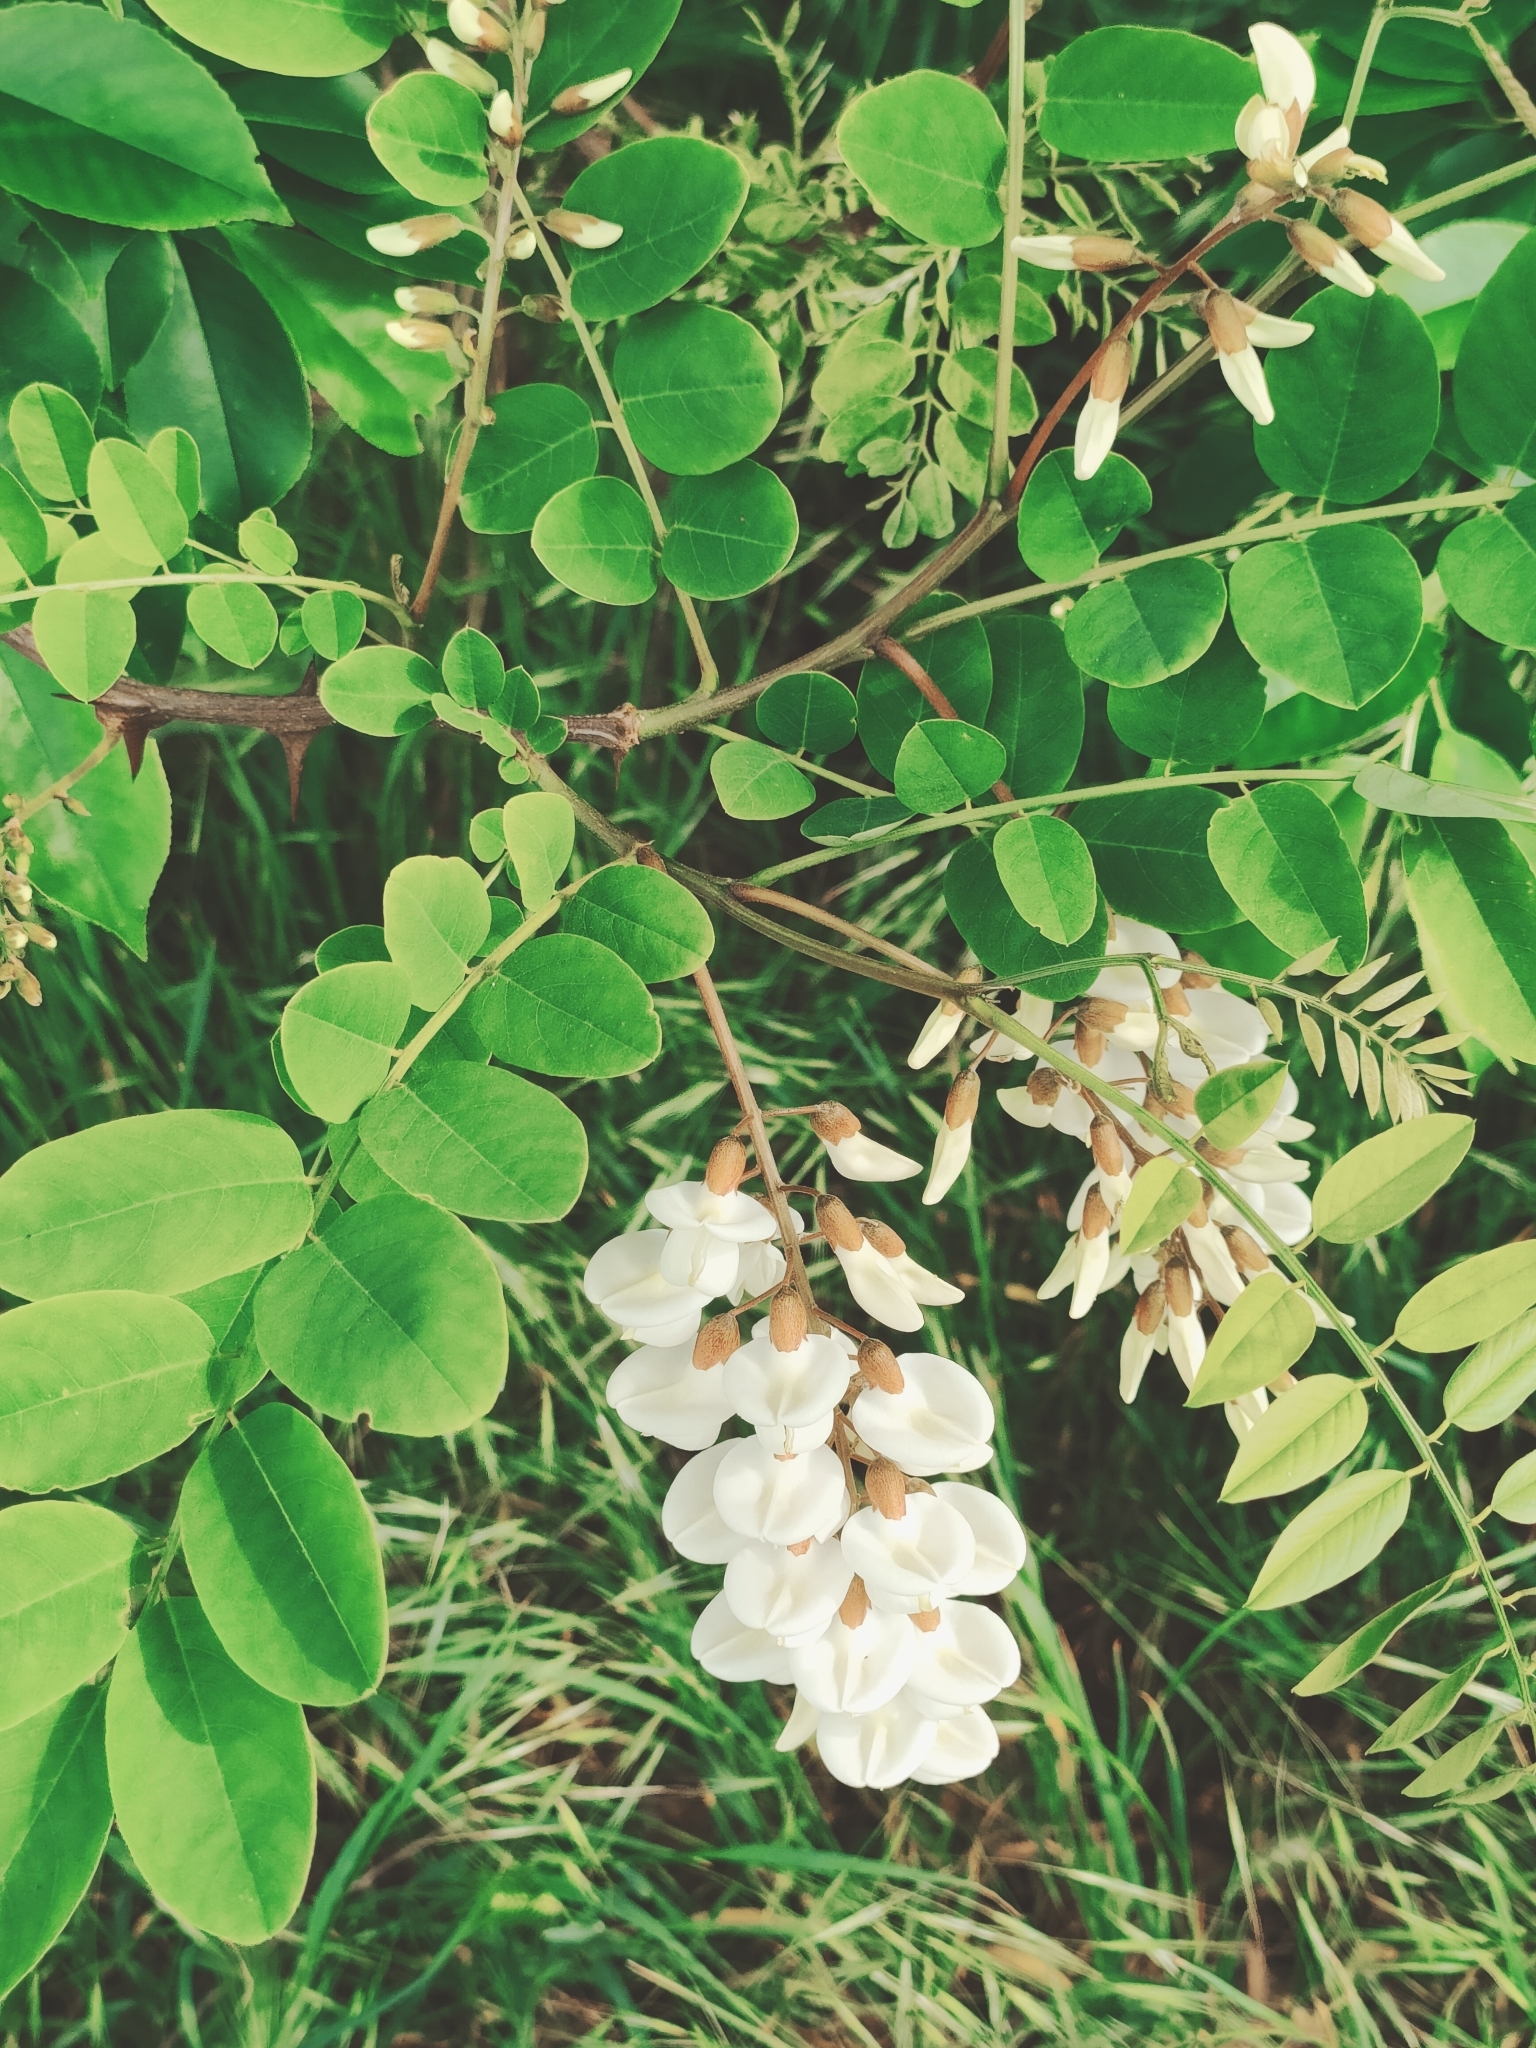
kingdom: Plantae
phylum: Tracheophyta
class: Magnoliopsida
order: Fabales
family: Fabaceae
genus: Robinia
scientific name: Robinia pseudoacacia
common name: Black locust
